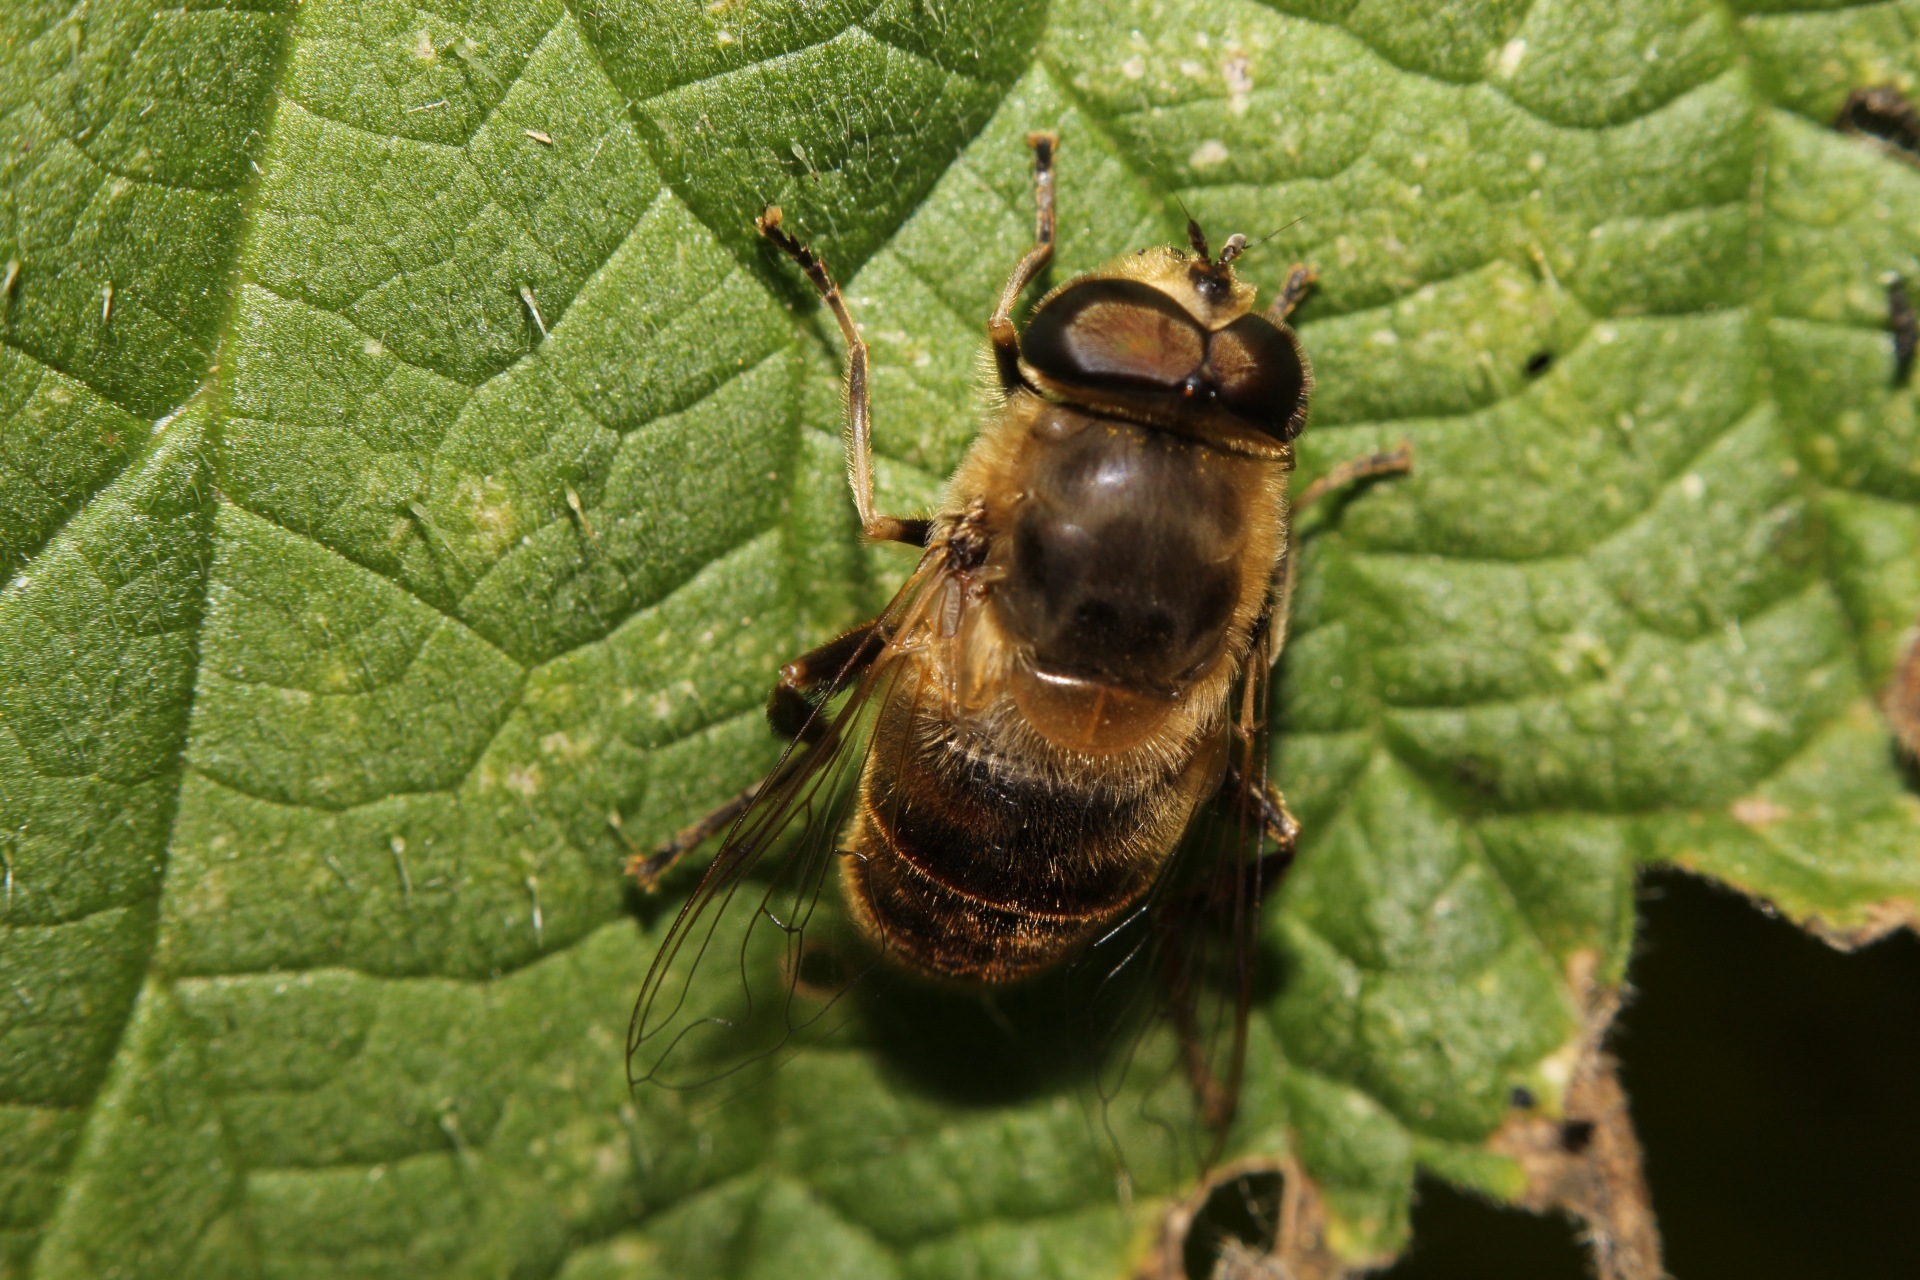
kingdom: Animalia
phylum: Arthropoda
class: Insecta
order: Diptera
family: Syrphidae
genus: Eristalis
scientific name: Eristalis tenax
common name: Drone fly
